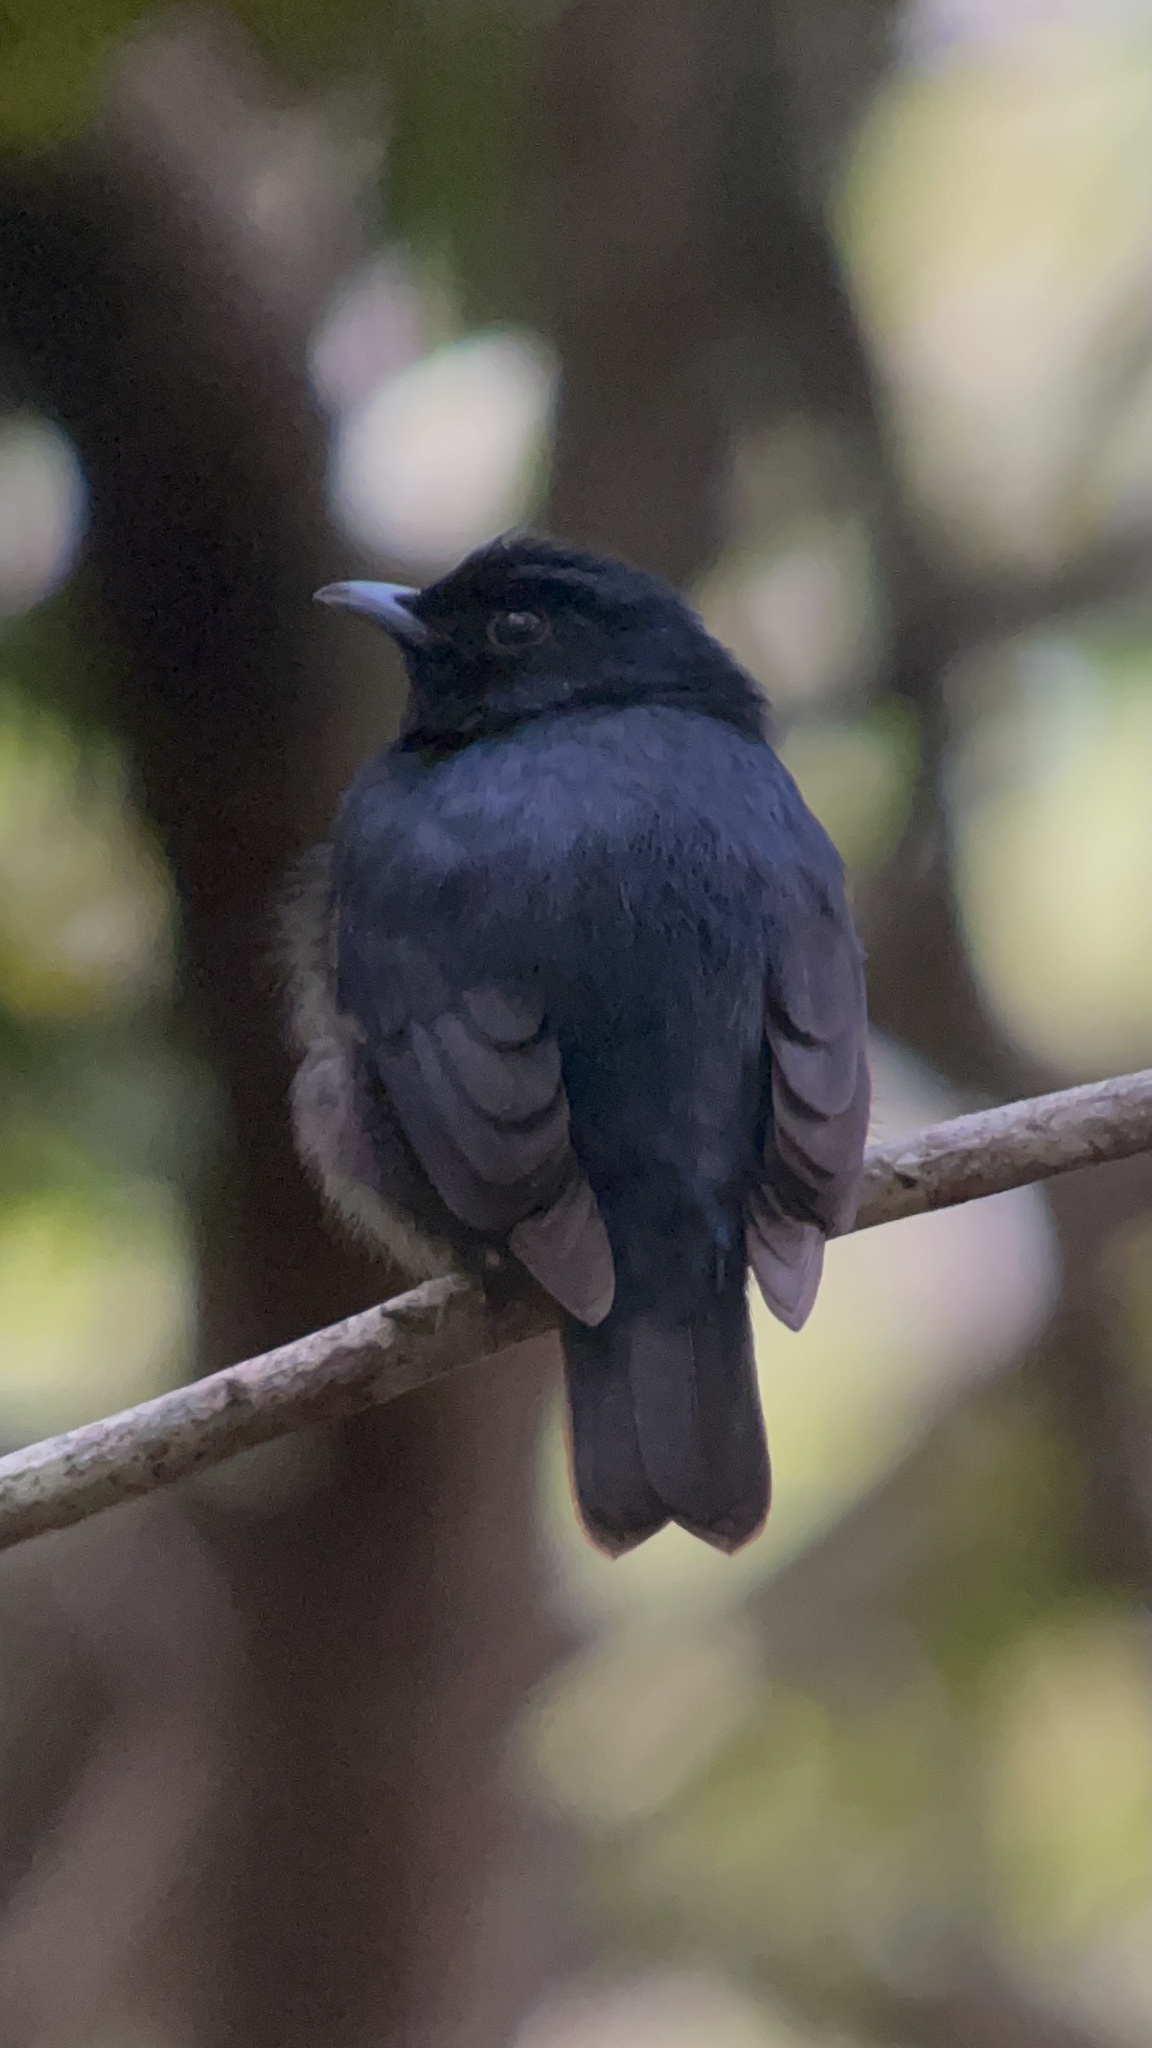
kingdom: Animalia
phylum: Chordata
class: Aves
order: Passeriformes
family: Pipridae
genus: Xenopipo
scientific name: Xenopipo atronitens
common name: Black manakin
